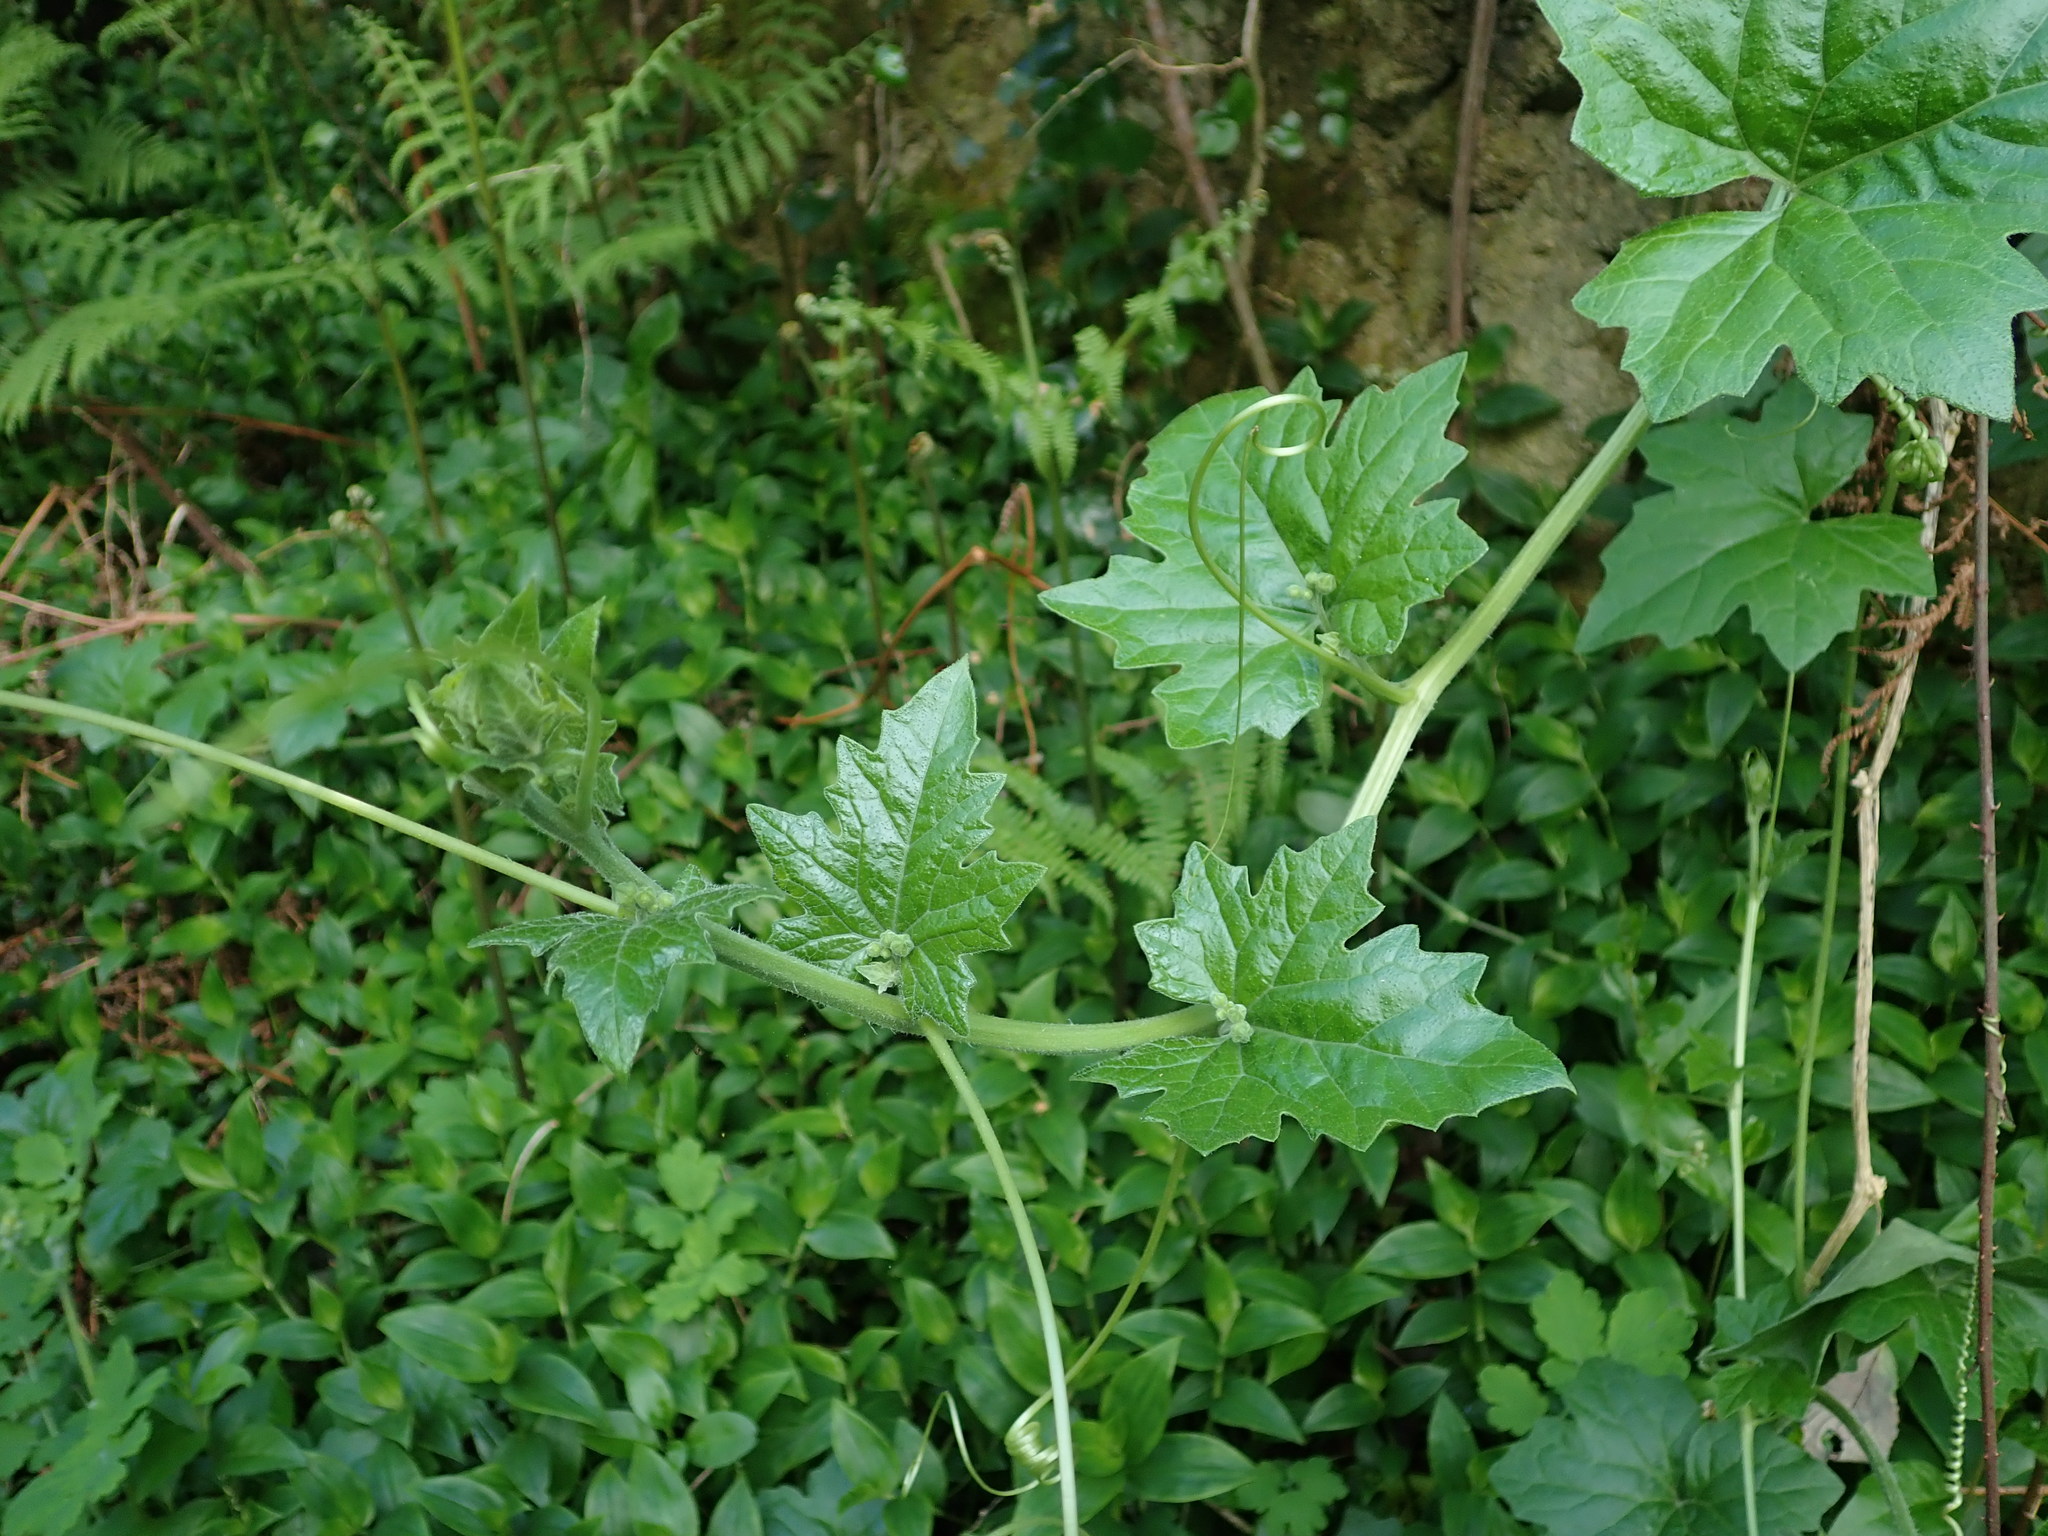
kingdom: Plantae
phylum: Tracheophyta
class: Magnoliopsida
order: Cucurbitales
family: Cucurbitaceae
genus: Bryonia
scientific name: Bryonia cretica
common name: Cretan bryony
